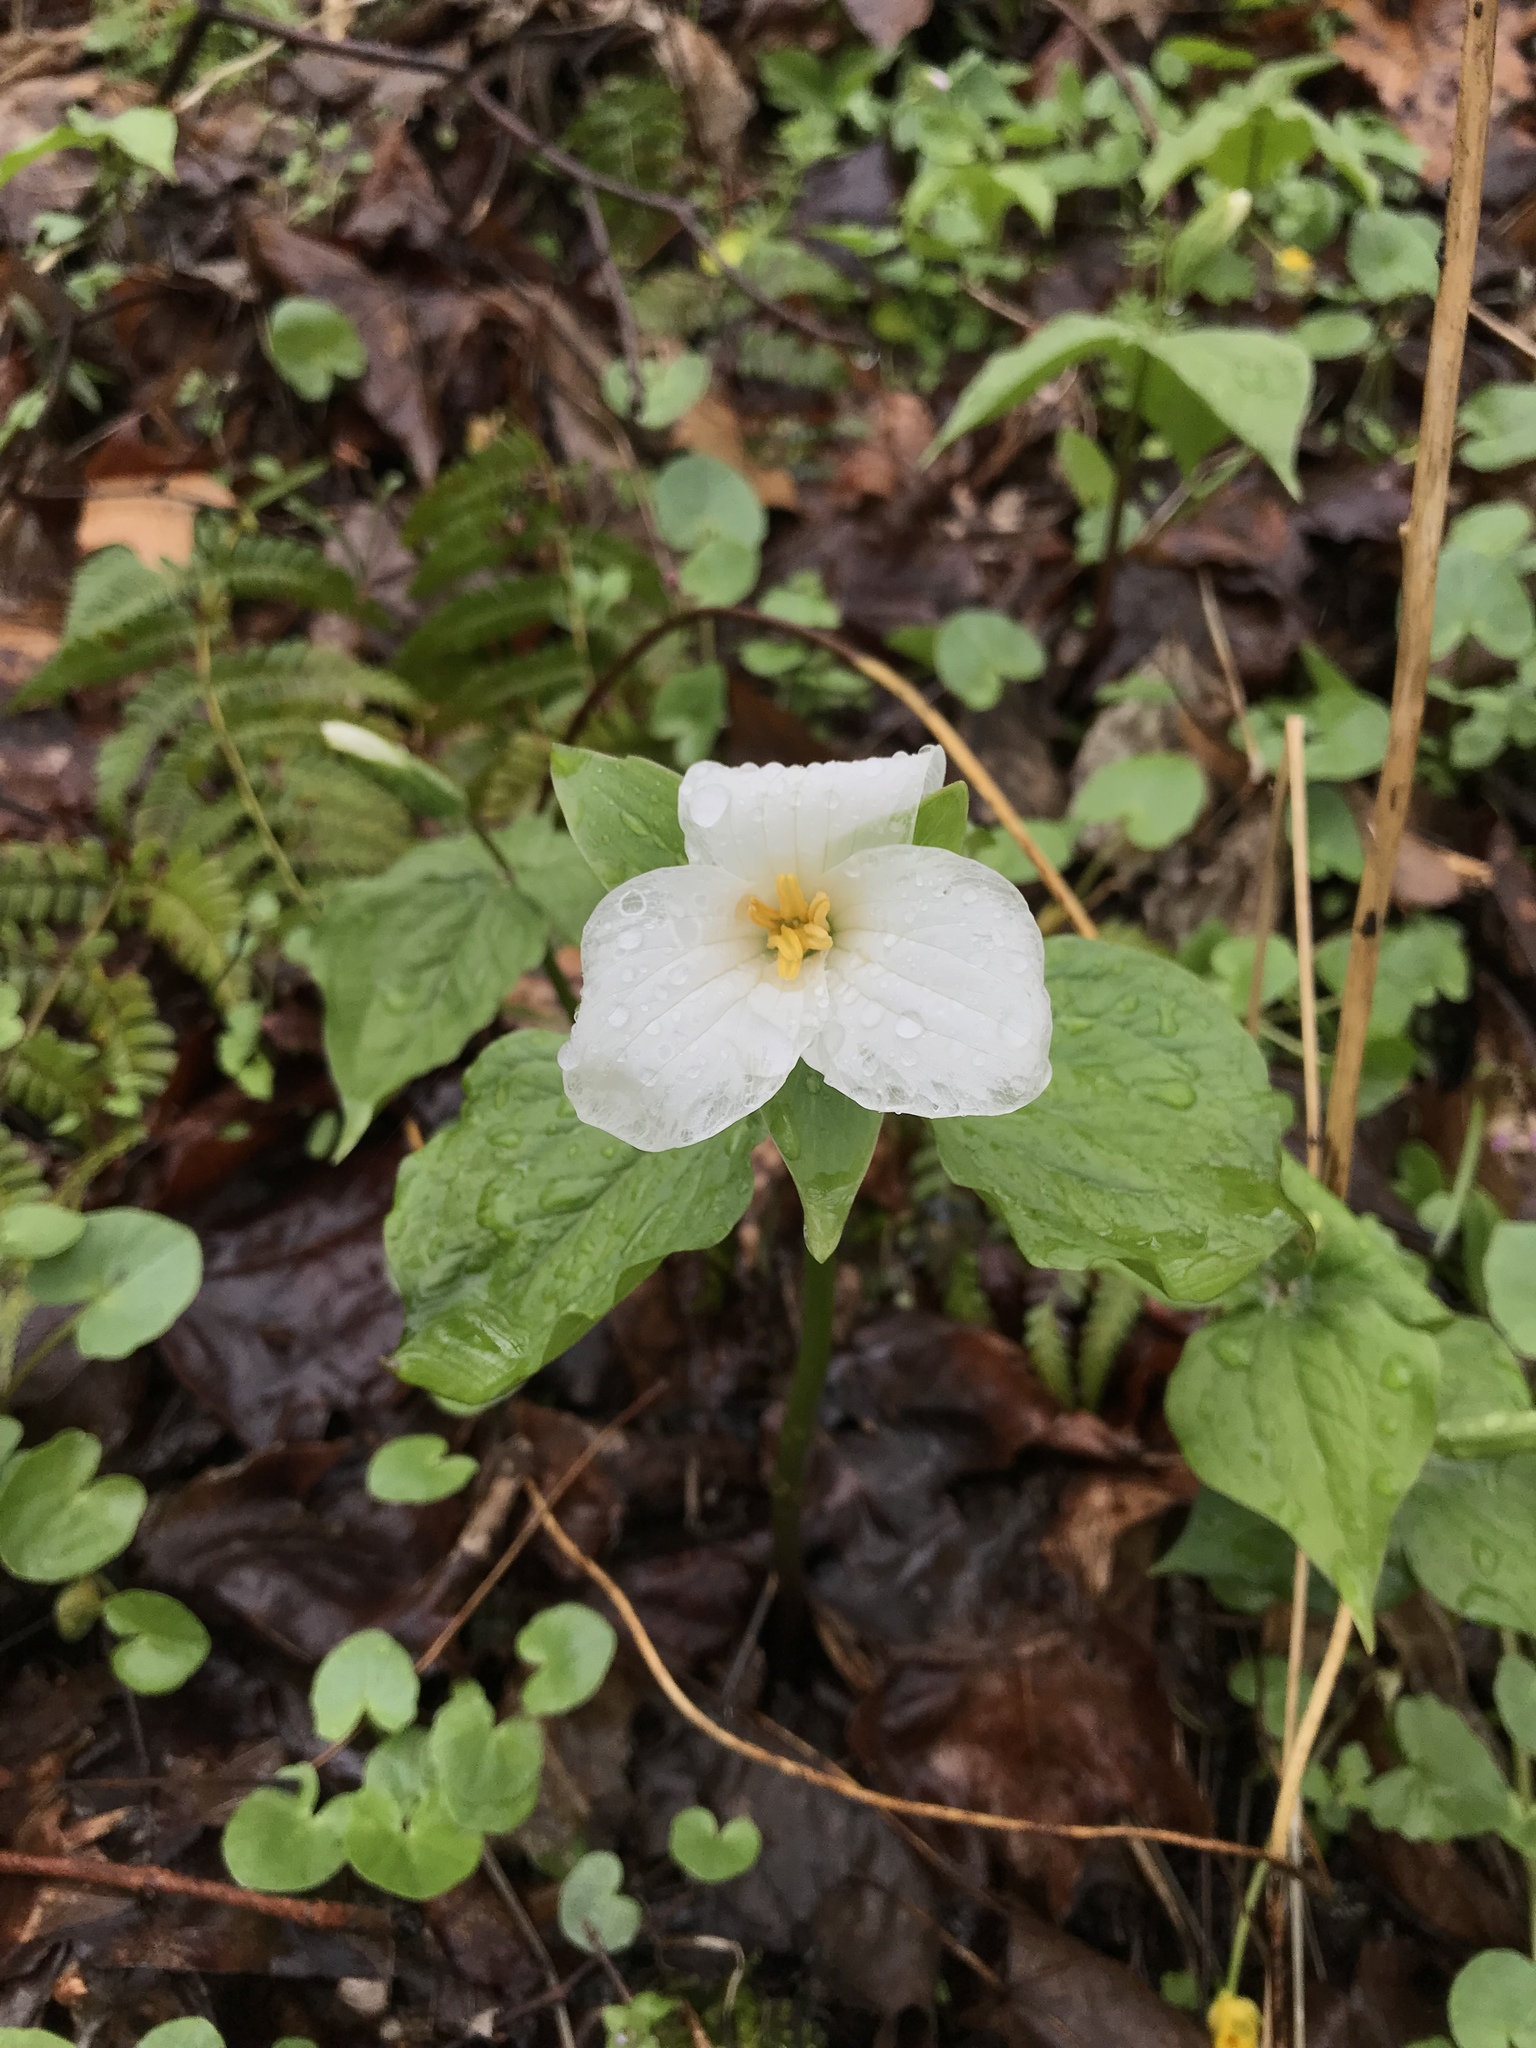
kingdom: Plantae
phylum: Tracheophyta
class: Liliopsida
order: Liliales
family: Melanthiaceae
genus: Trillium
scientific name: Trillium grandiflorum
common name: Great white trillium
